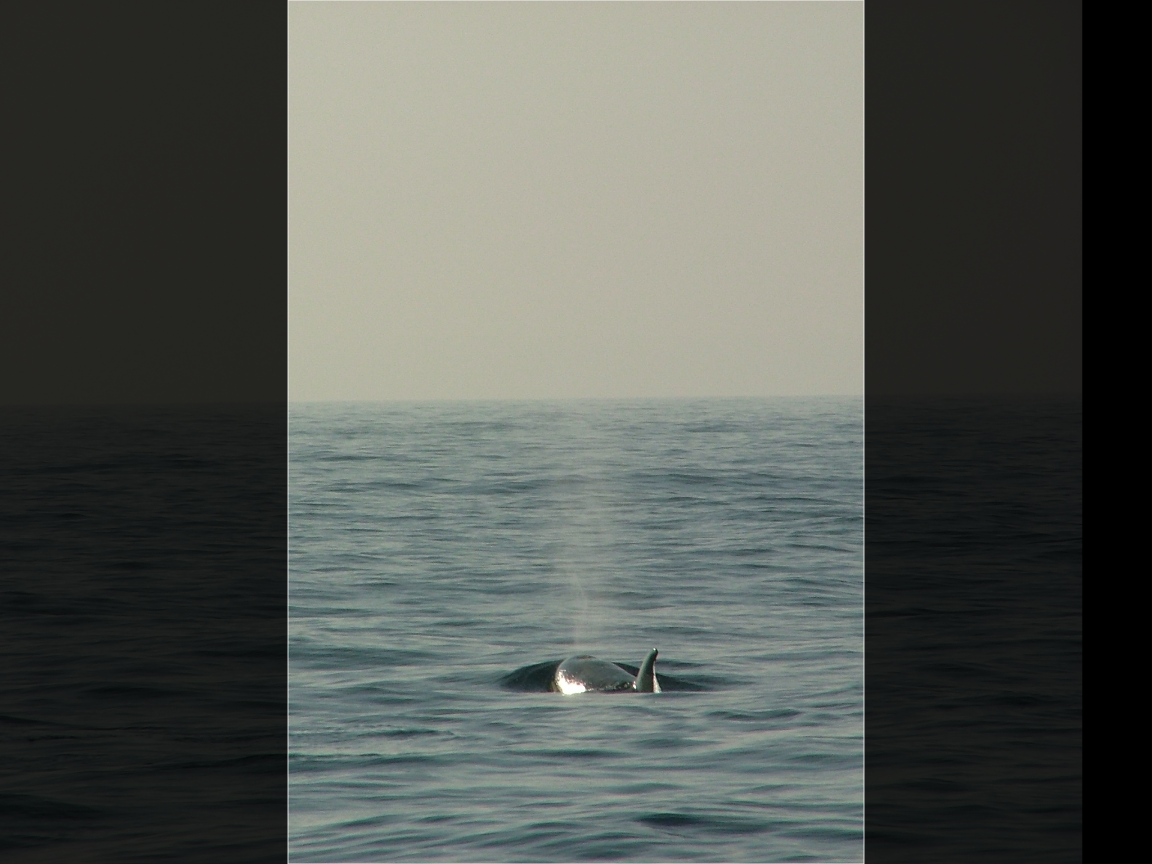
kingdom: Animalia
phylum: Chordata
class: Mammalia
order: Cetacea
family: Delphinidae
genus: Orcinus
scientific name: Orcinus orca
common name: Killer whale
